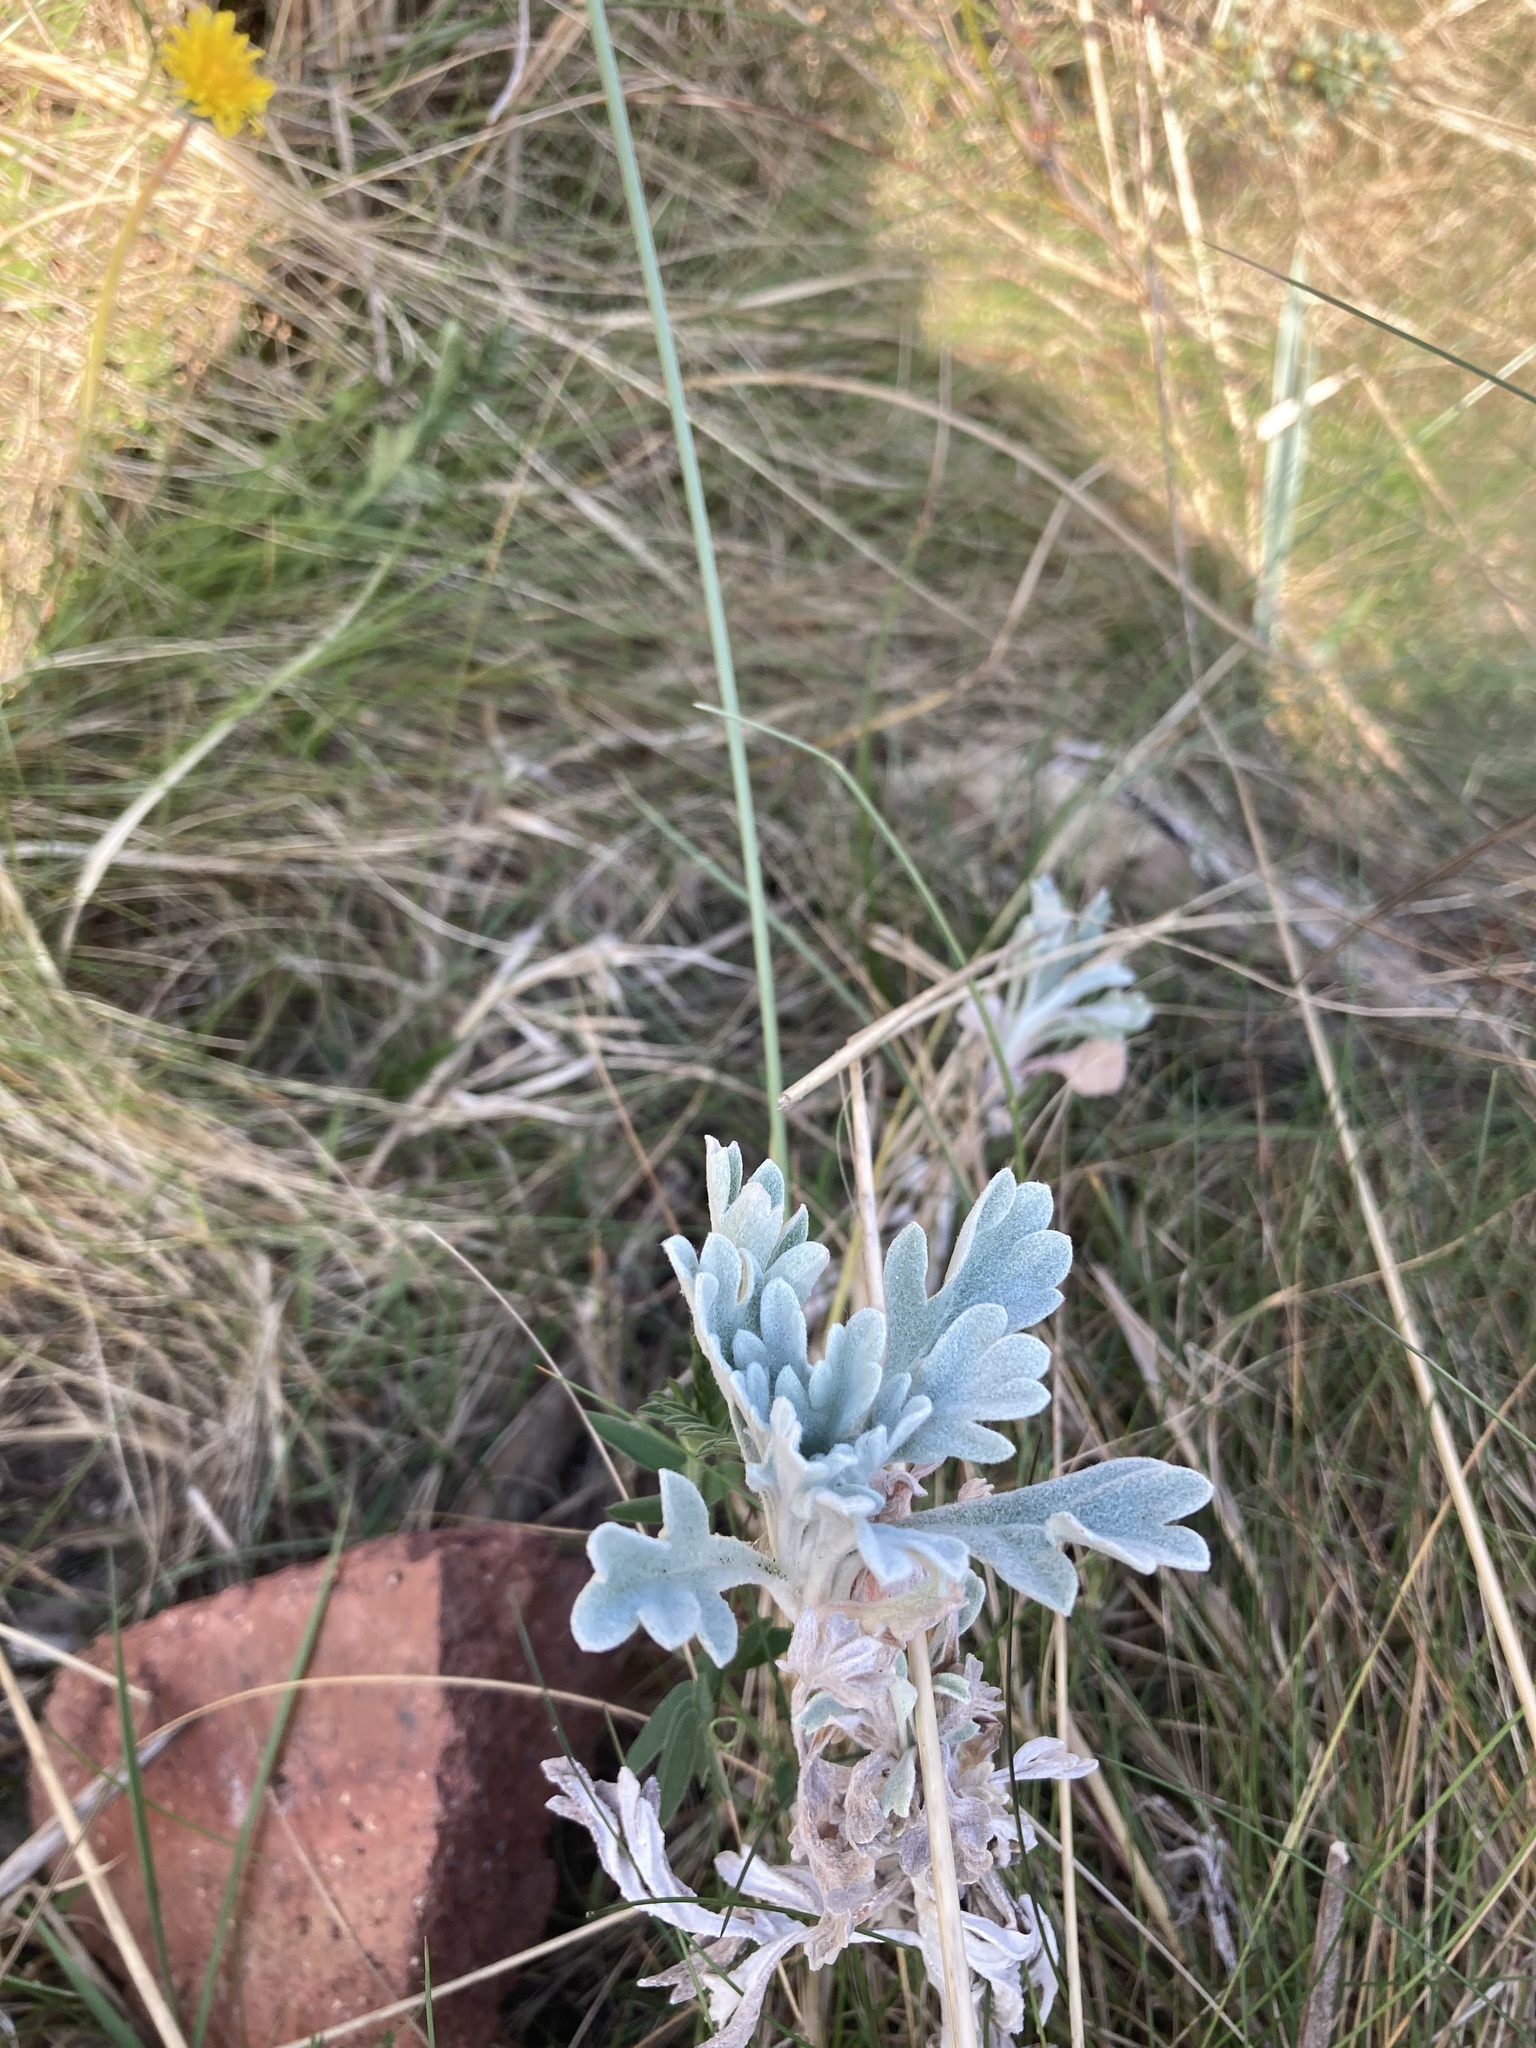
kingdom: Plantae
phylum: Tracheophyta
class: Magnoliopsida
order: Asterales
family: Asteraceae
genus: Artemisia
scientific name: Artemisia stelleriana
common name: Beach wormwood
